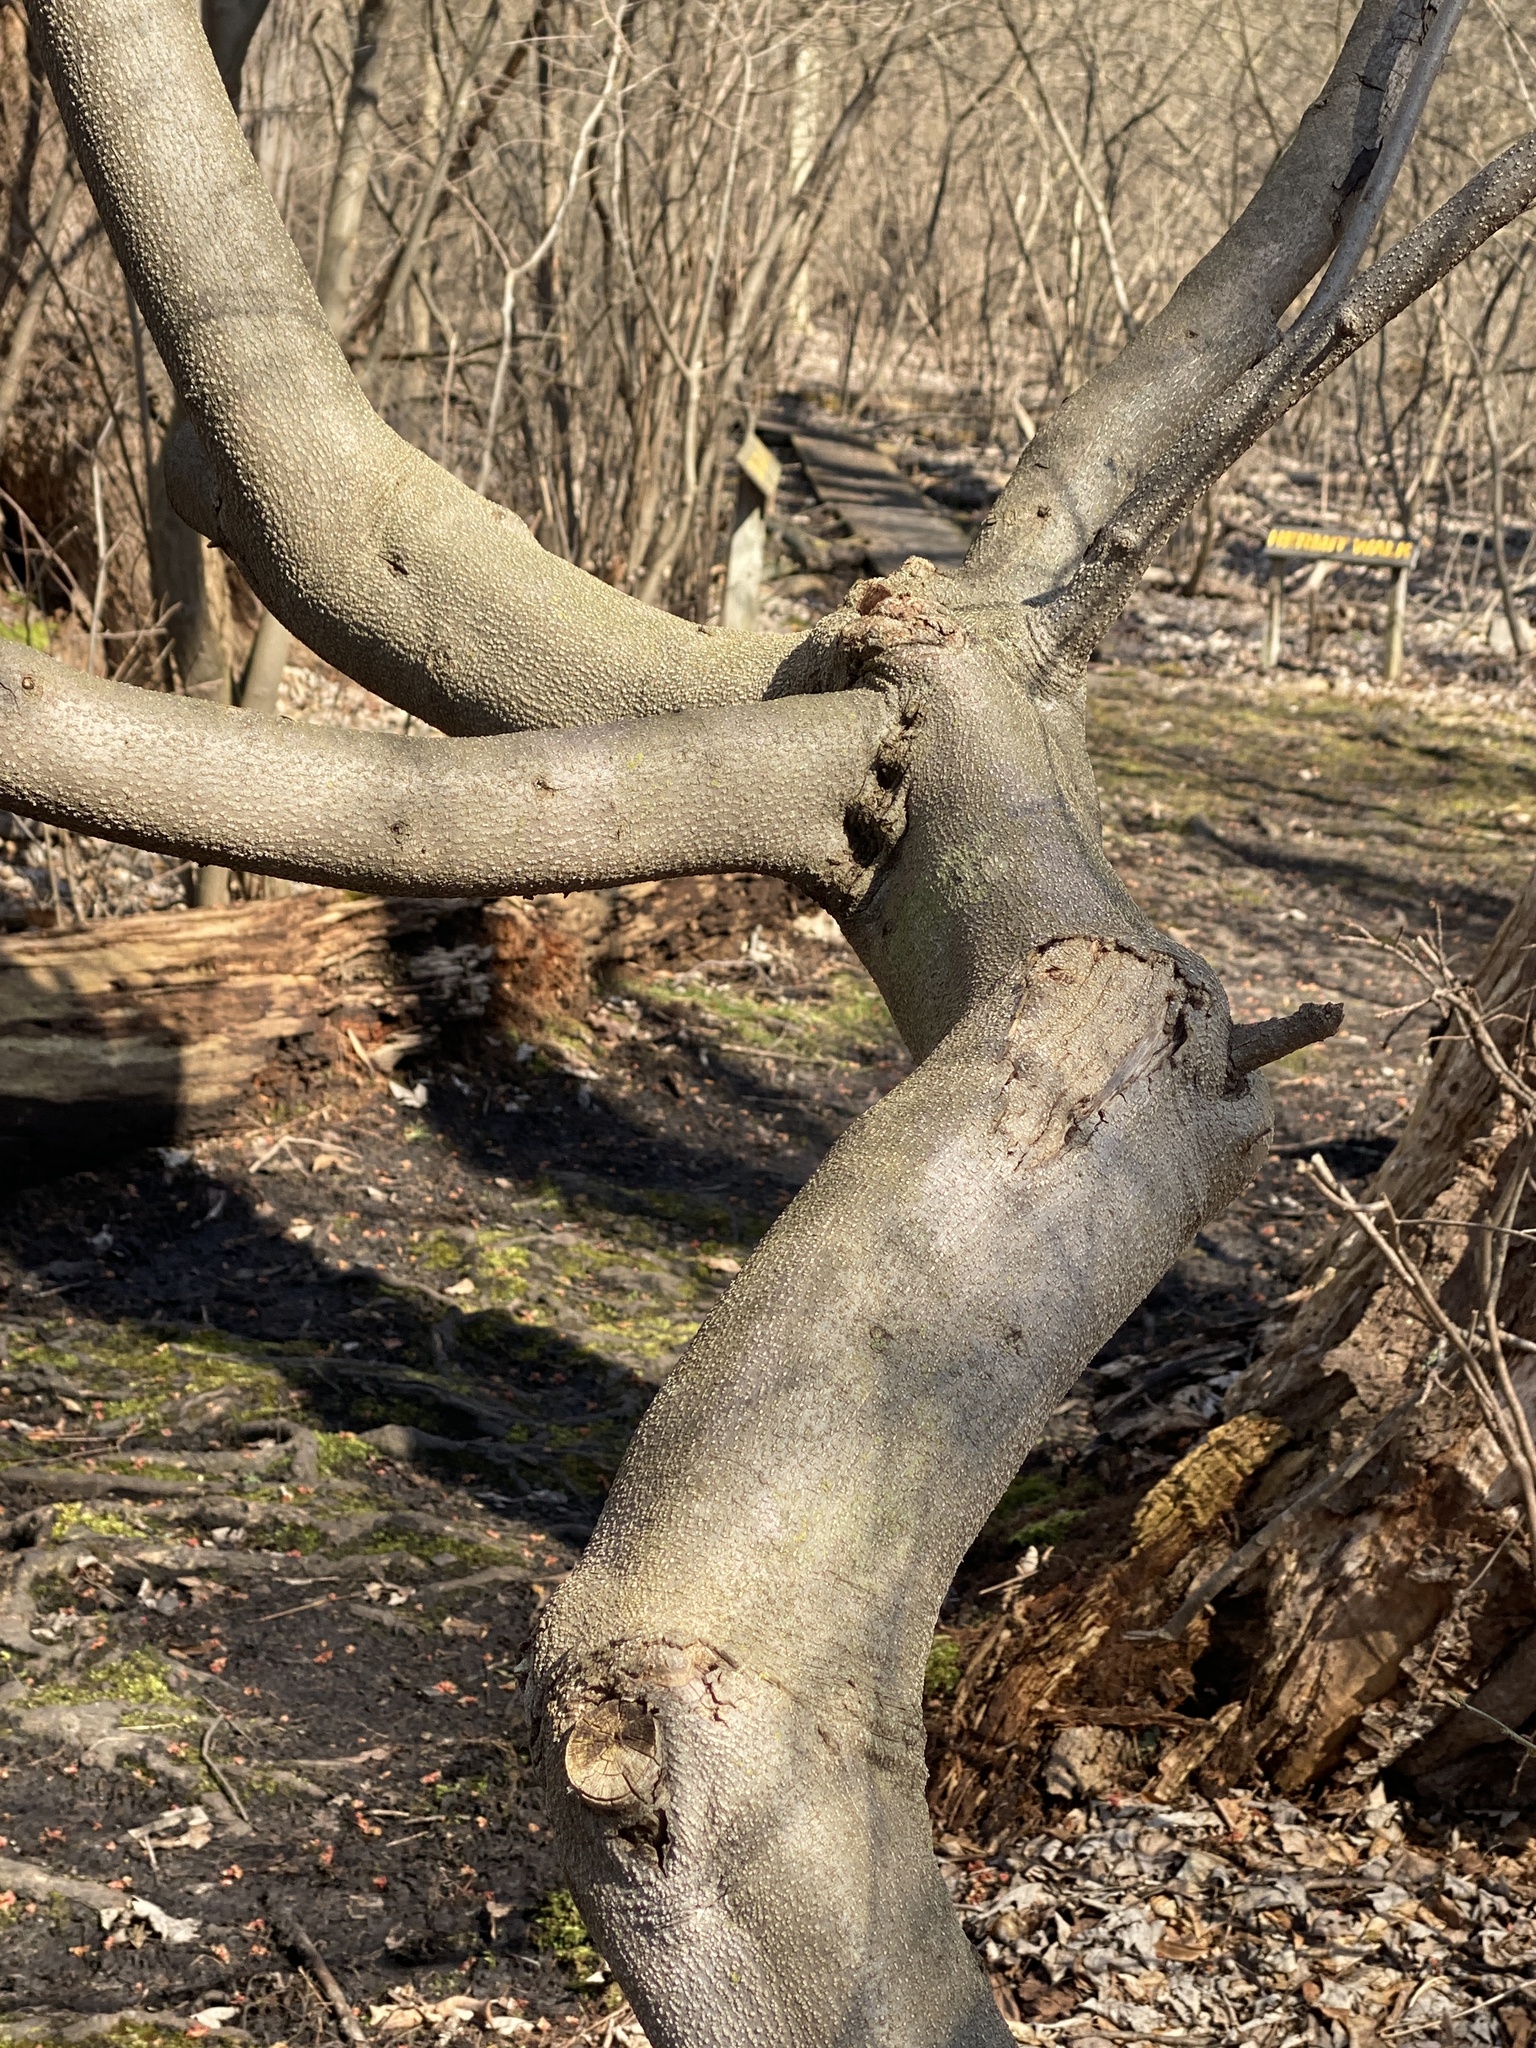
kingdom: Plantae
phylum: Tracheophyta
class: Magnoliopsida
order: Laurales
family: Lauraceae
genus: Lindera
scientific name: Lindera benzoin
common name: Spicebush
